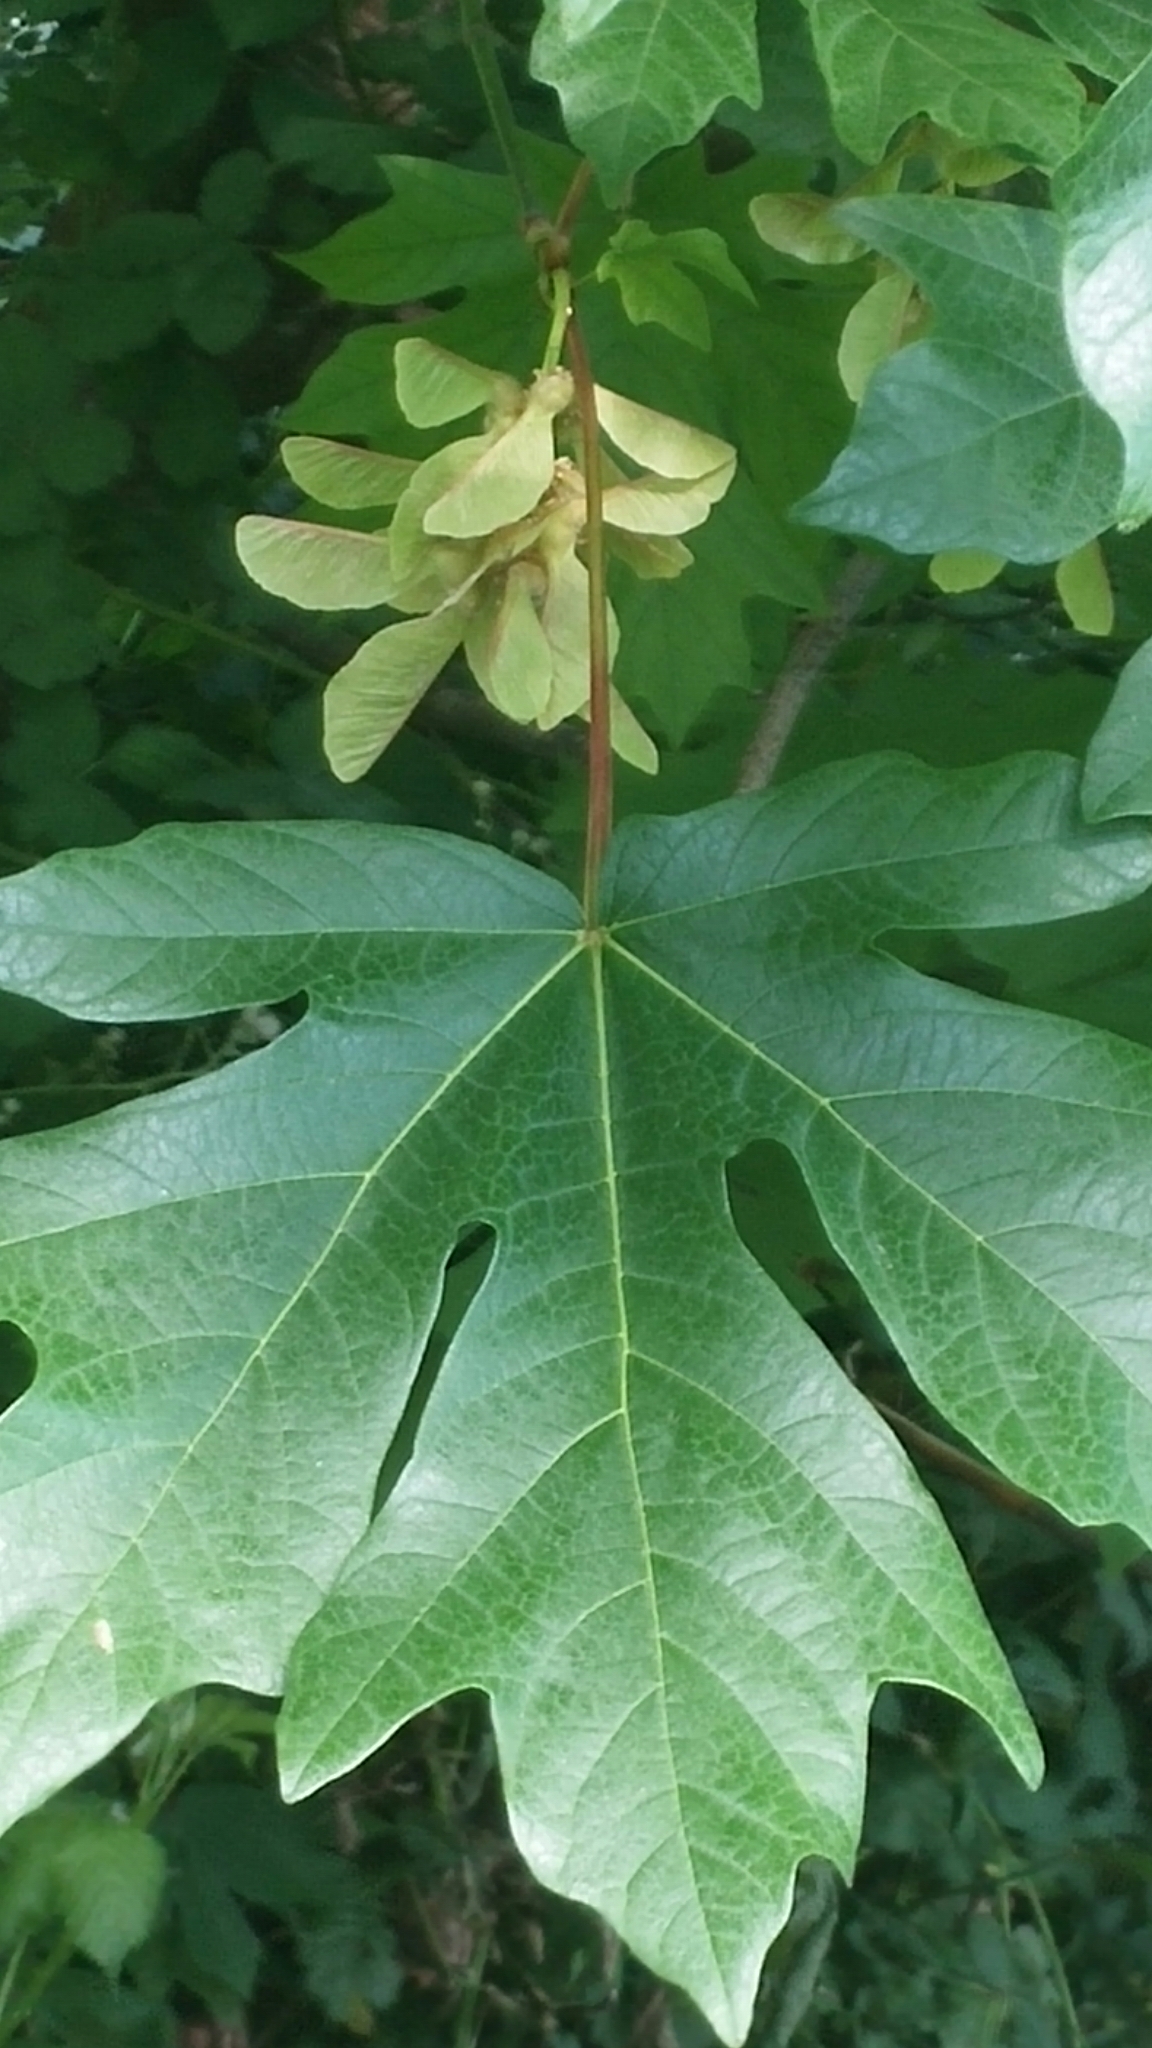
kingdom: Plantae
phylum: Tracheophyta
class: Magnoliopsida
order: Sapindales
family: Sapindaceae
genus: Acer
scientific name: Acer macrophyllum
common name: Oregon maple
